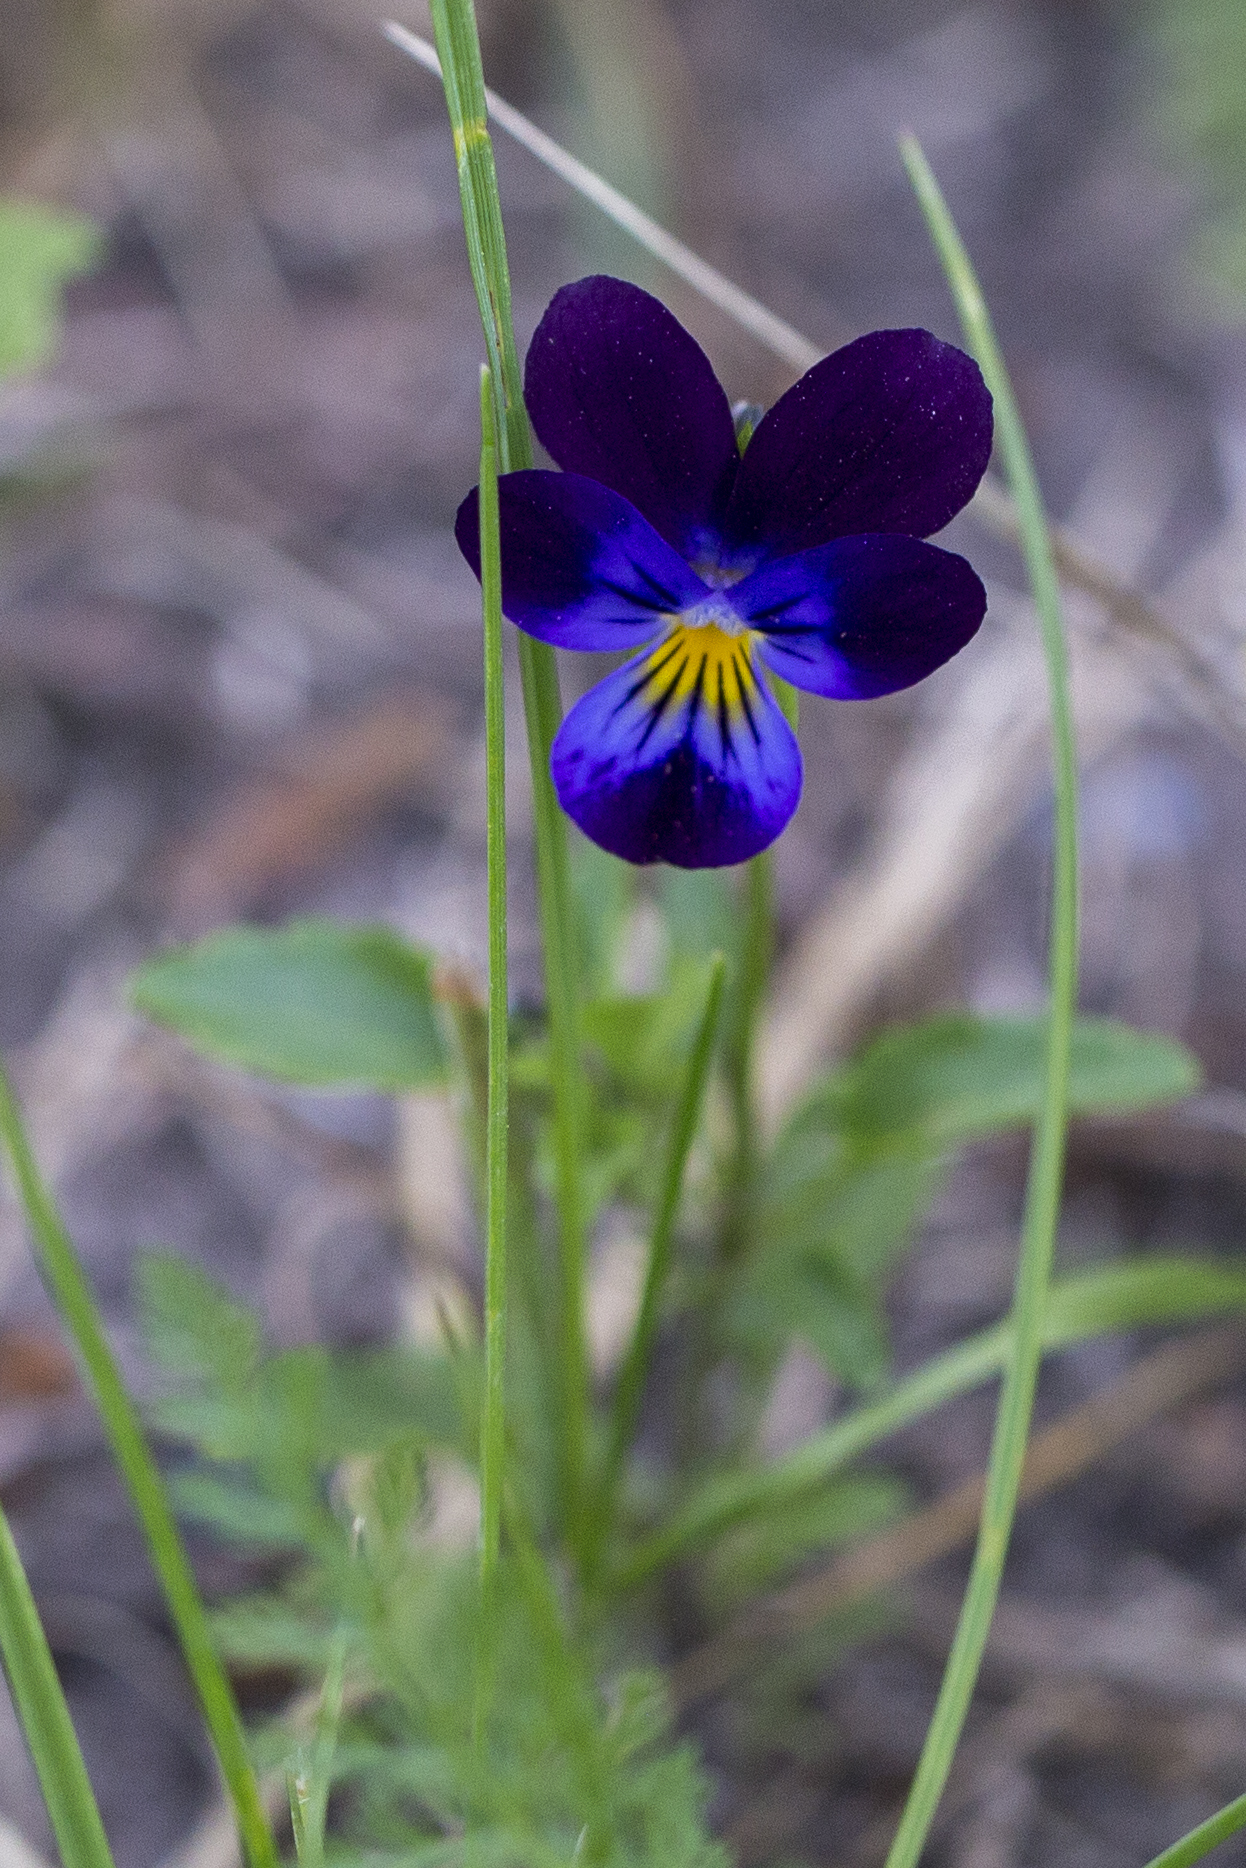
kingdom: Plantae
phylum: Tracheophyta
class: Magnoliopsida
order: Malpighiales
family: Violaceae
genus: Viola
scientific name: Viola tricolor
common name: Pansy
